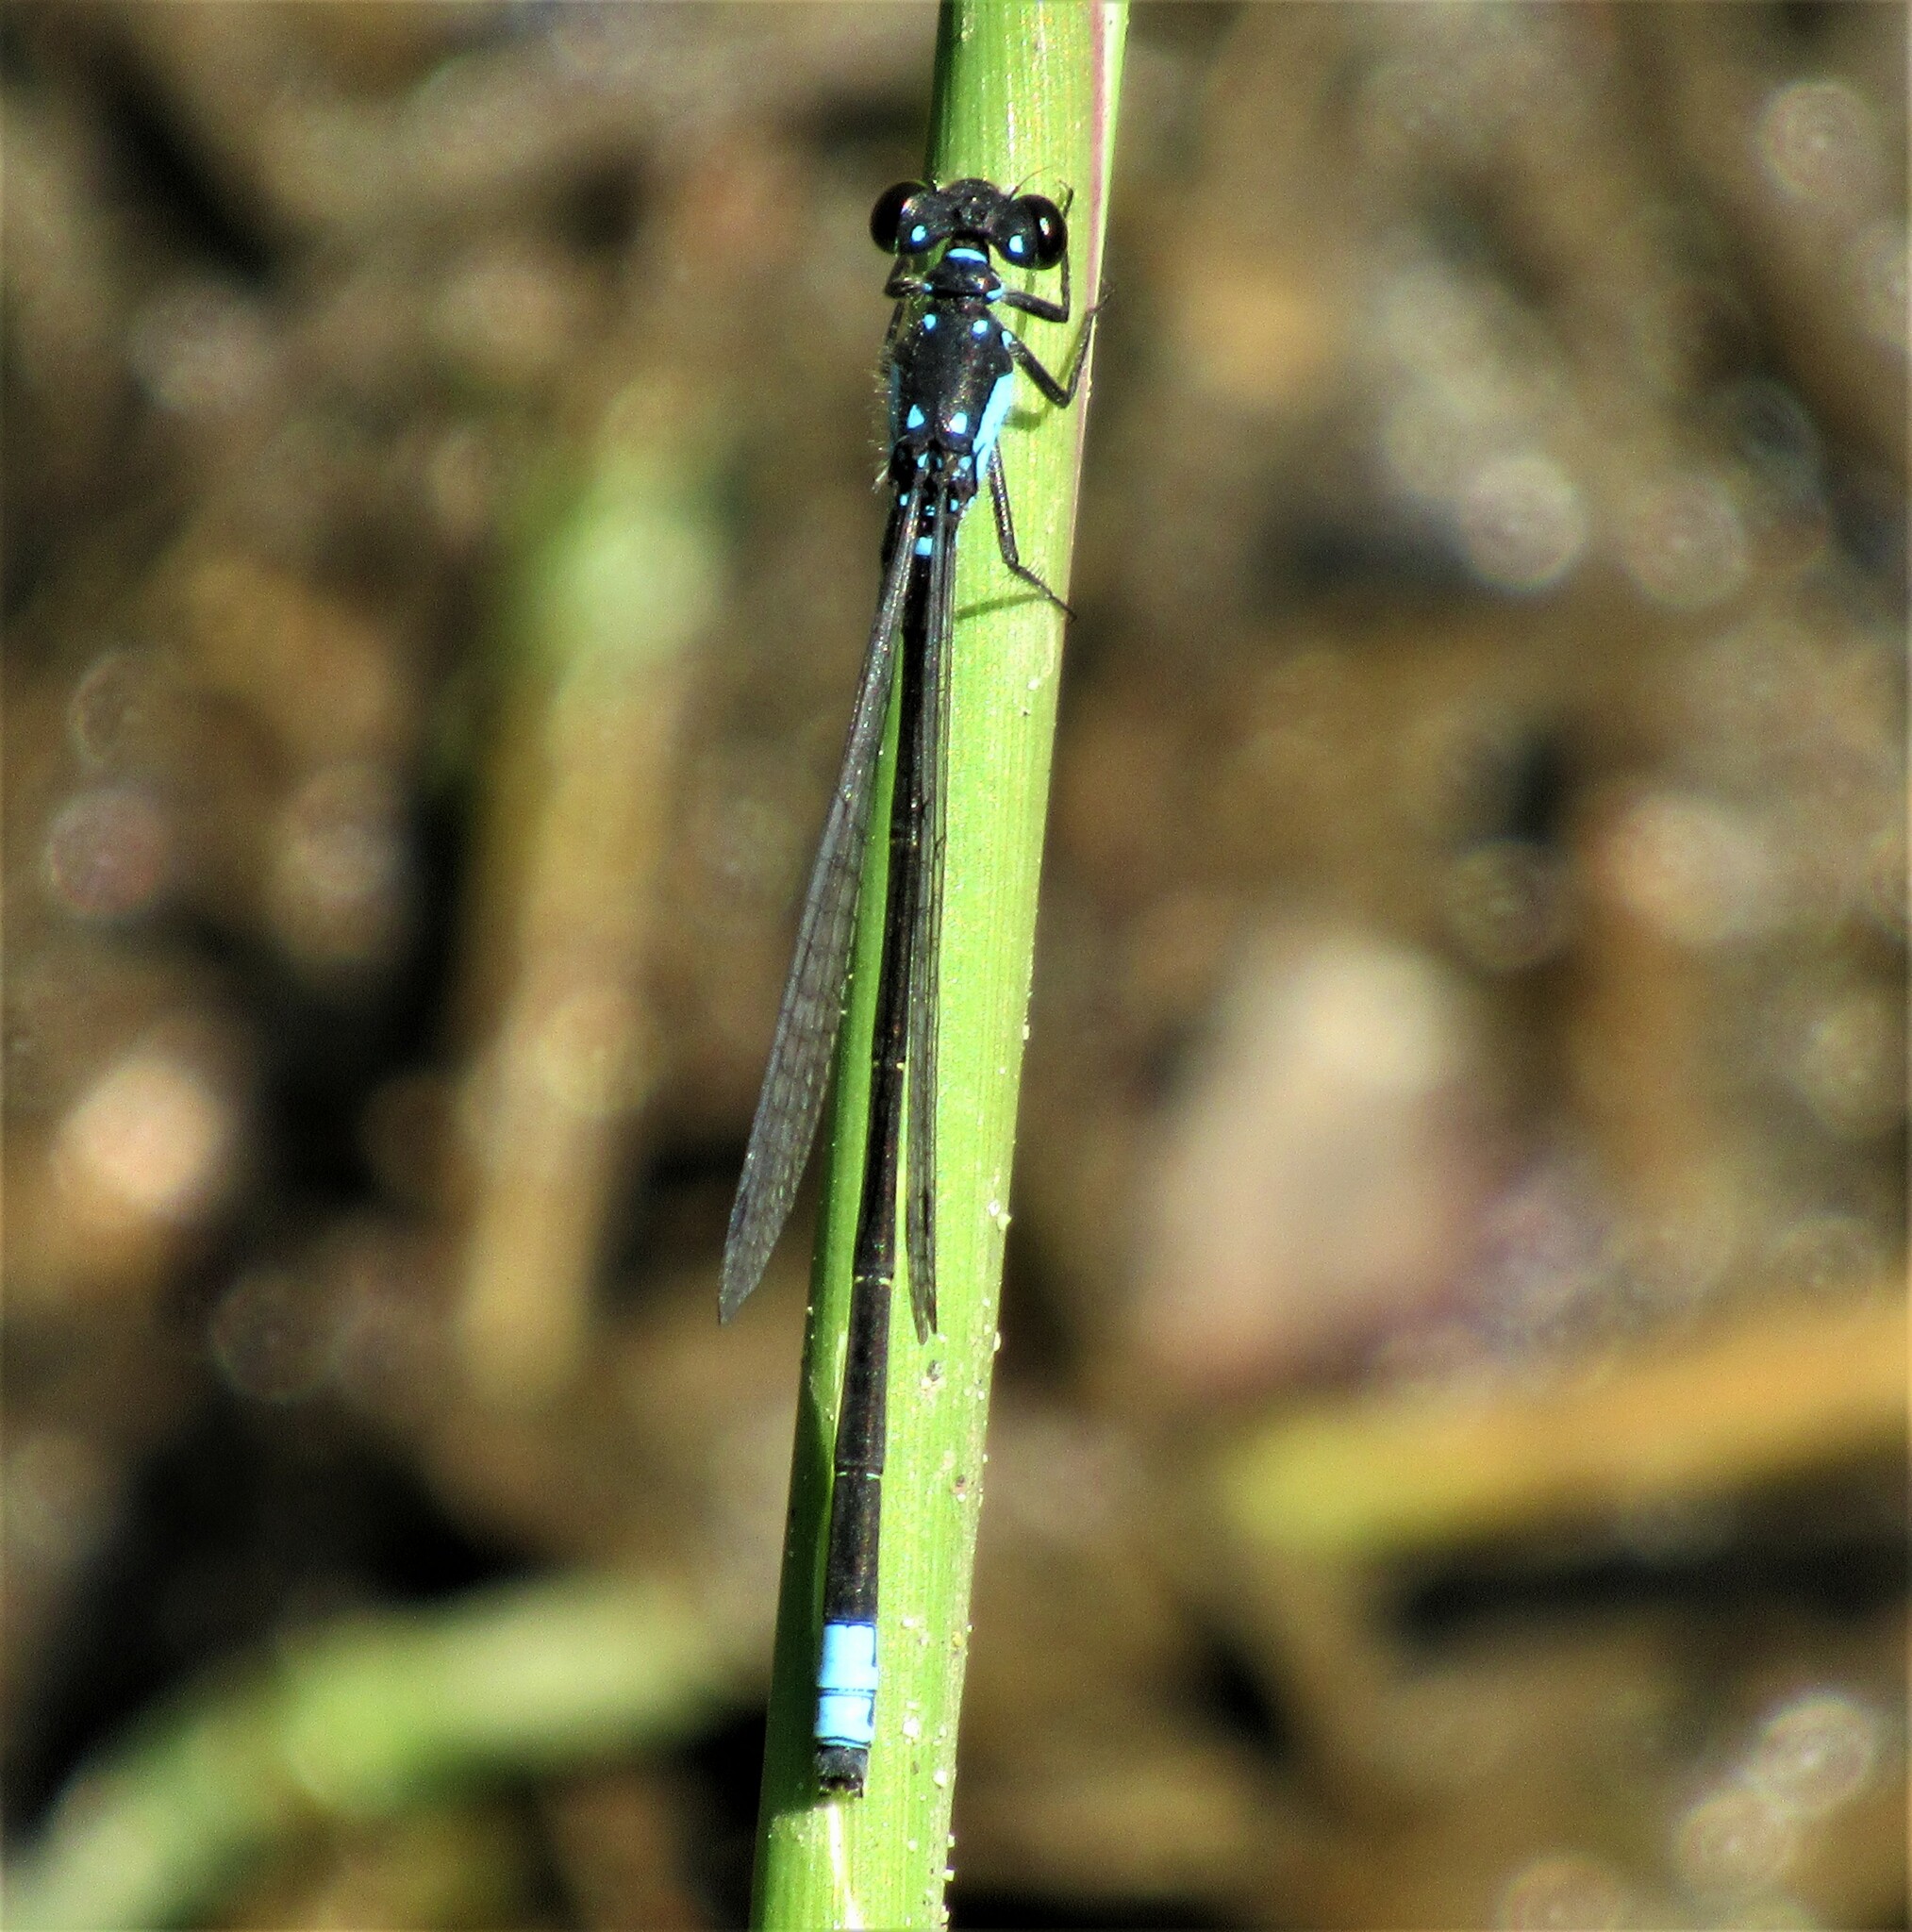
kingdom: Animalia
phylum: Arthropoda
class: Insecta
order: Odonata
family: Coenagrionidae
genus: Ischnura
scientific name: Ischnura cervula
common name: Pacific forktail
